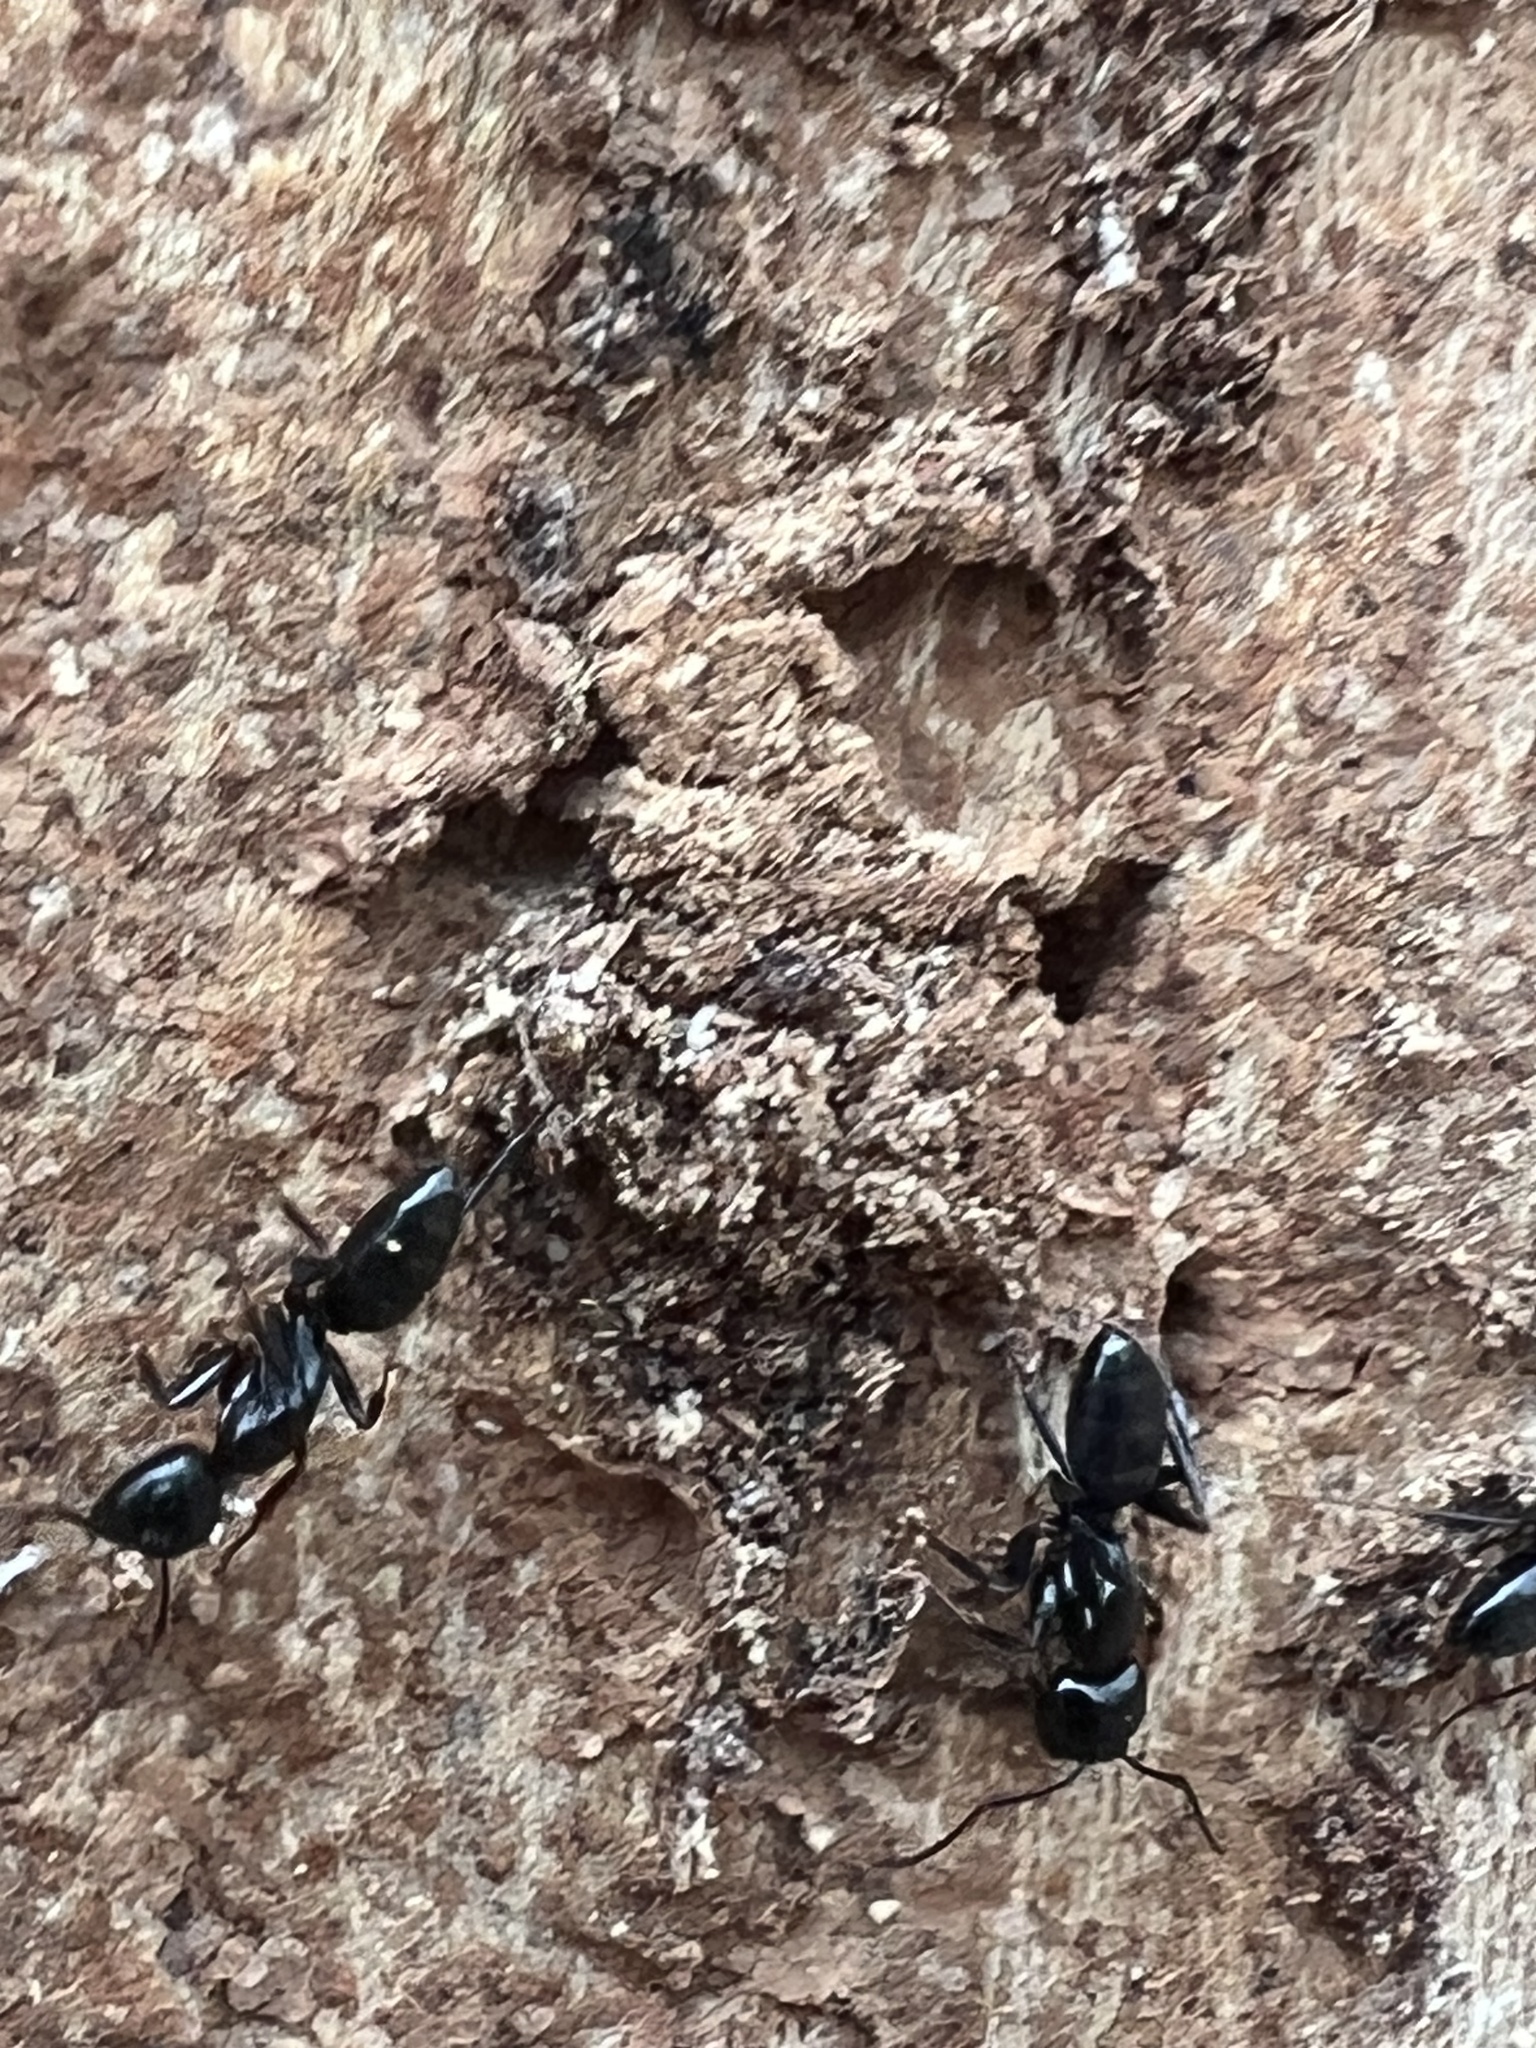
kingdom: Animalia
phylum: Arthropoda
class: Insecta
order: Hymenoptera
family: Formicidae
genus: Camponotus
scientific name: Camponotus nearcticus
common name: Smaller carpenter ant
